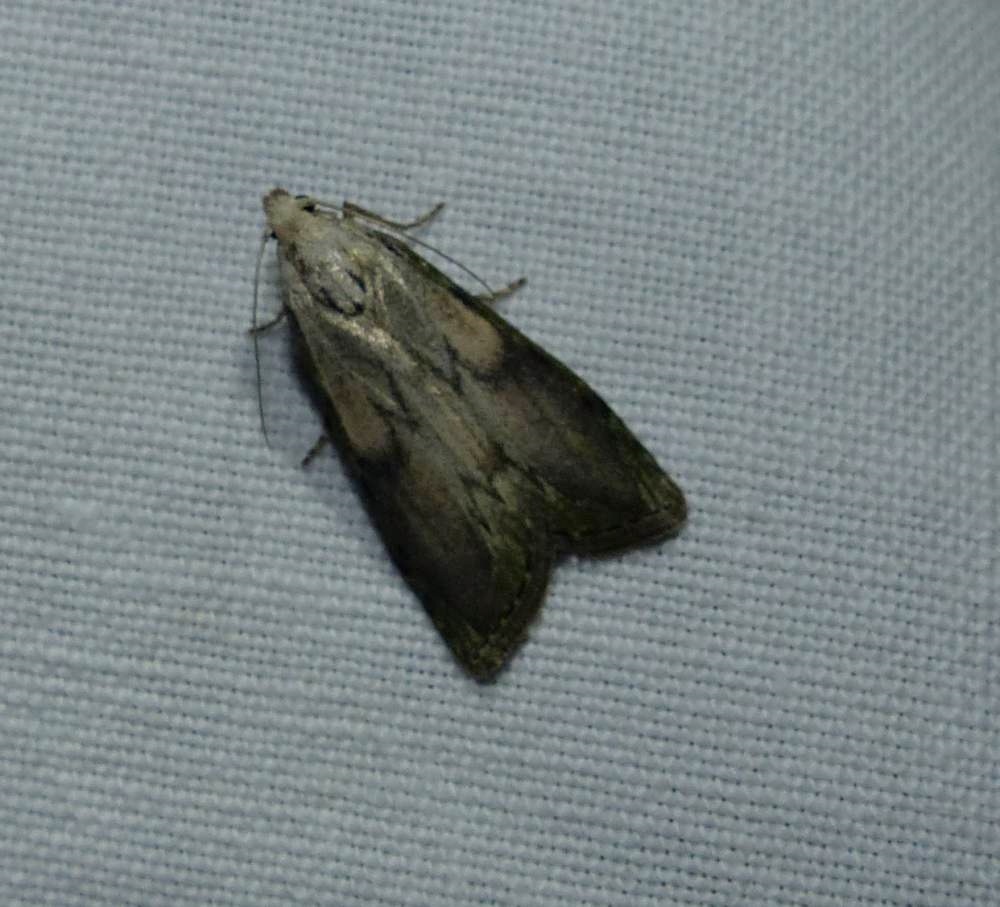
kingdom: Animalia
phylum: Arthropoda
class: Insecta
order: Lepidoptera
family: Pyralidae
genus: Aphomia
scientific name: Aphomia sociella
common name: Bee moth
